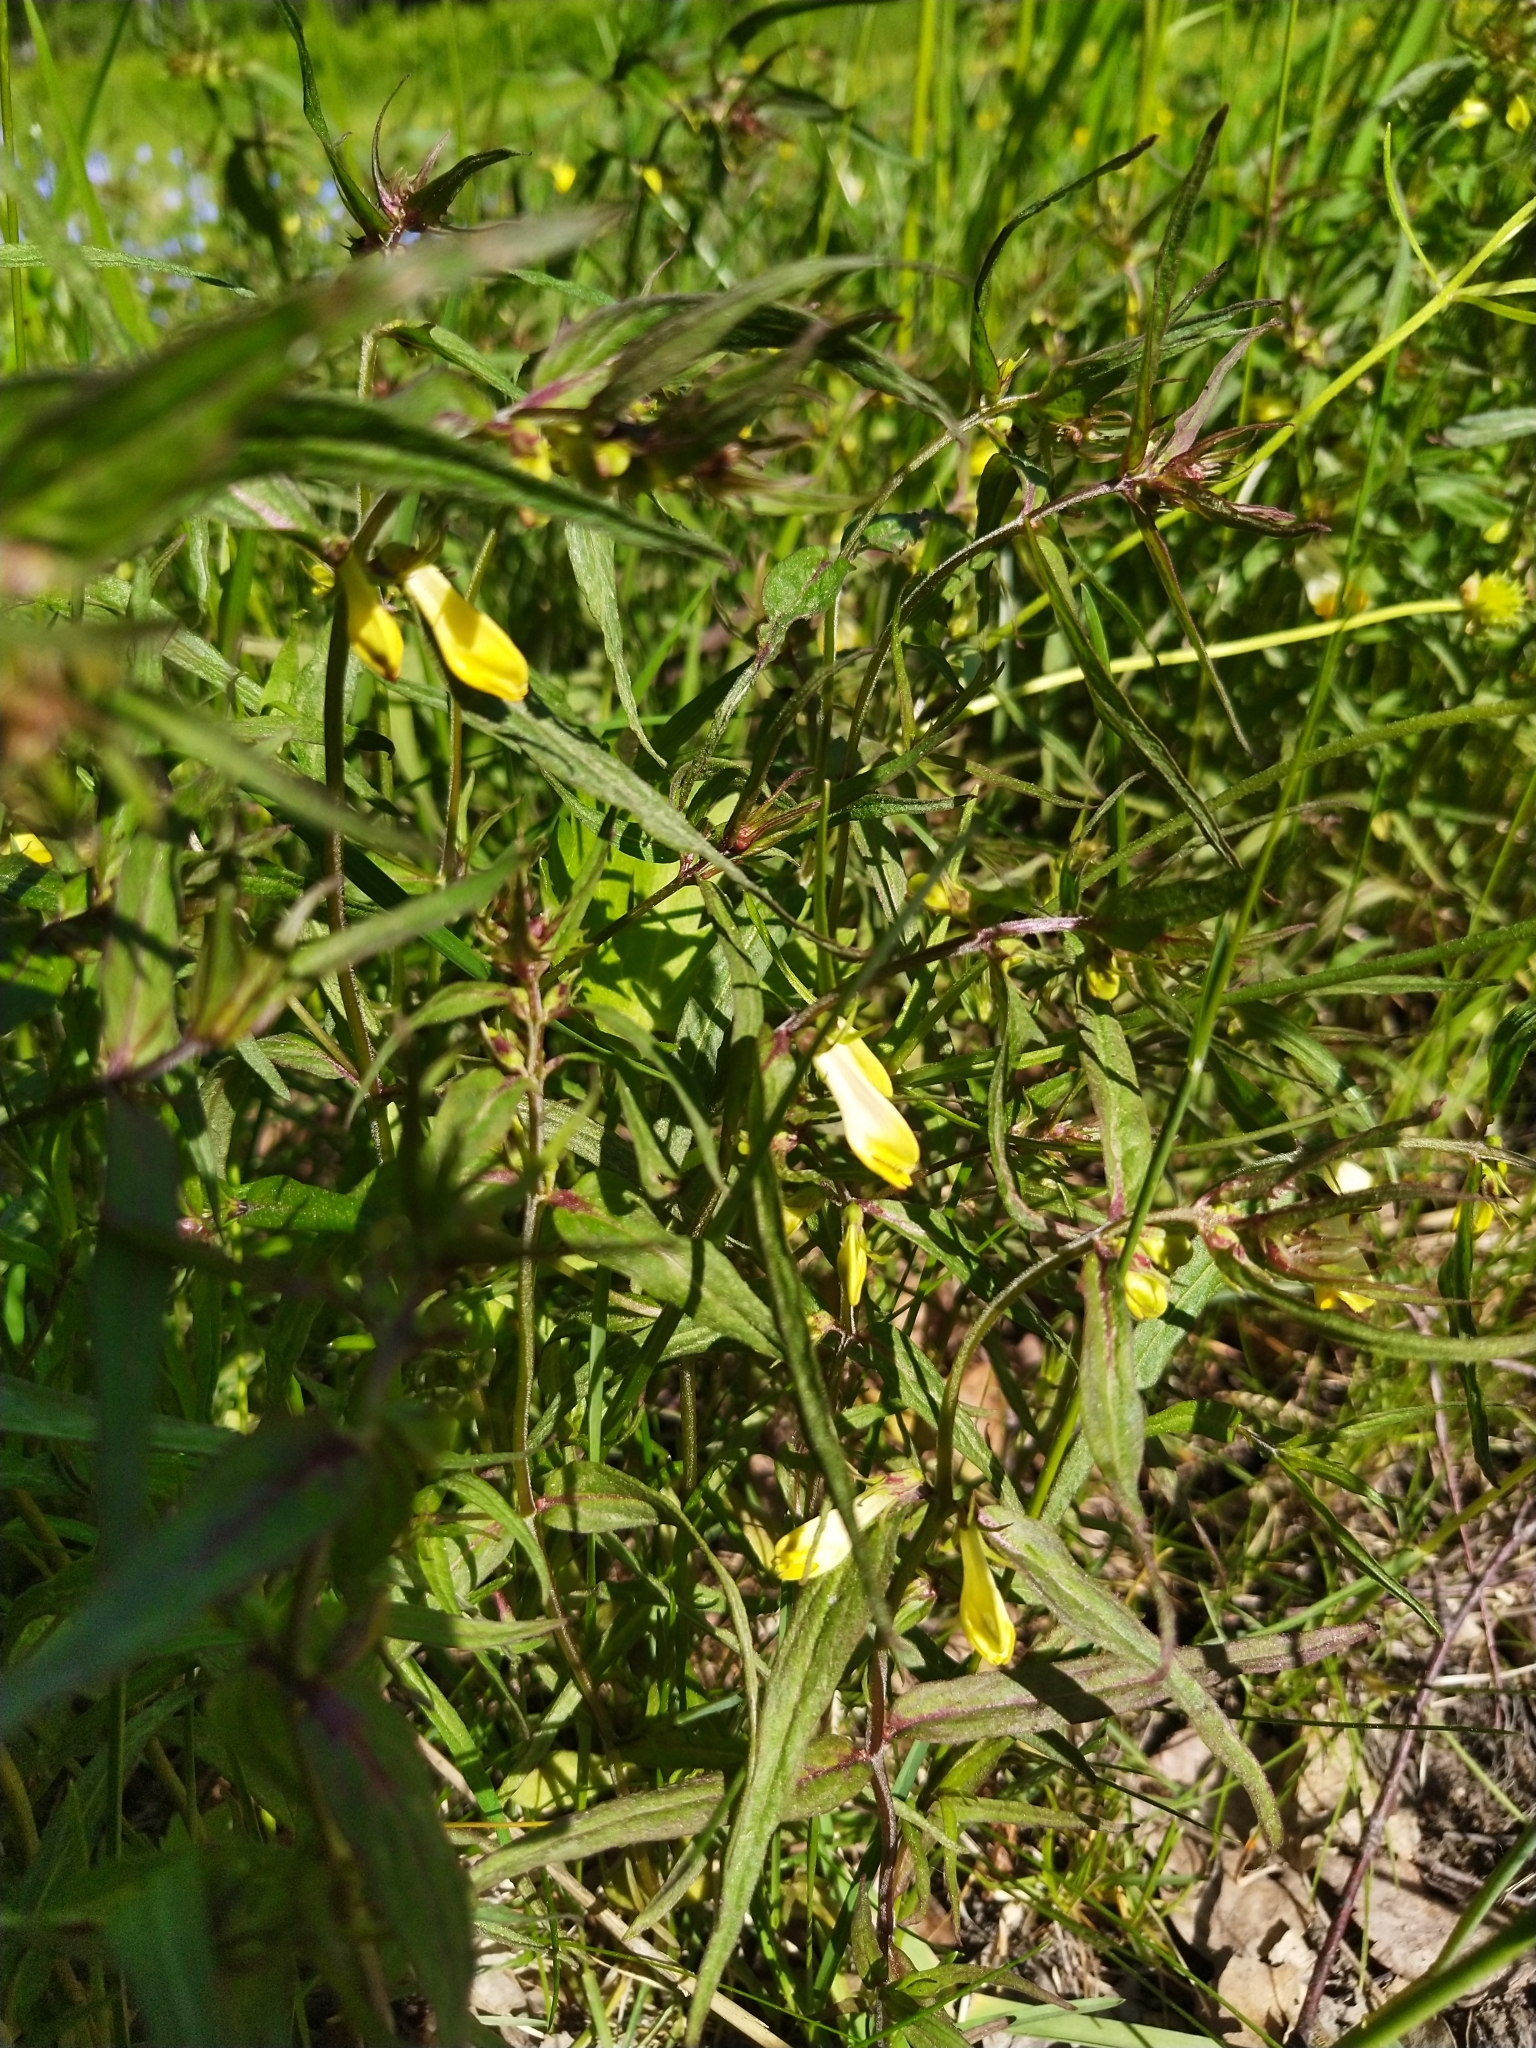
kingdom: Plantae
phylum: Tracheophyta
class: Magnoliopsida
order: Lamiales
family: Orobanchaceae
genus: Melampyrum
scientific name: Melampyrum pratense
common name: Common cow-wheat
